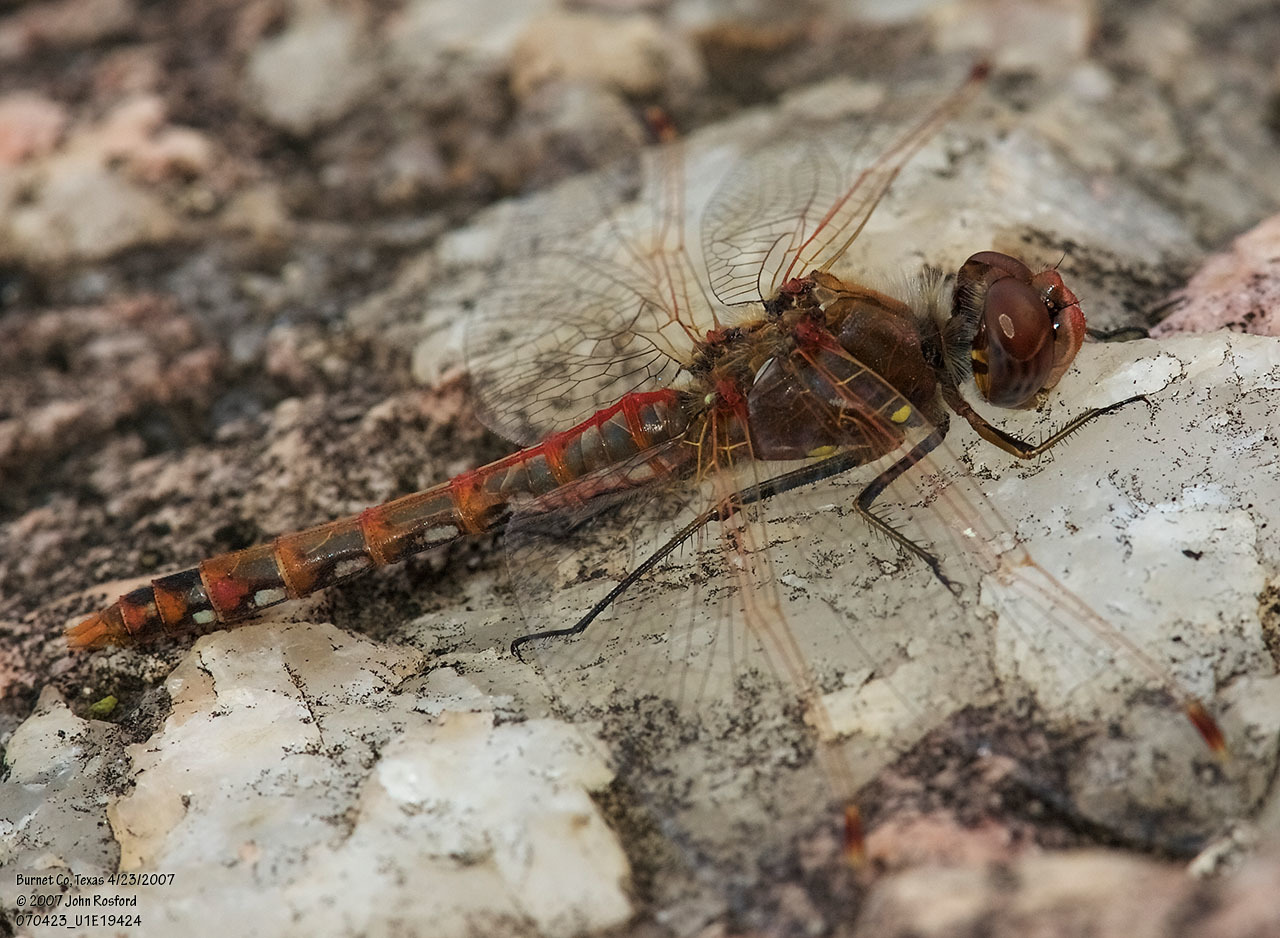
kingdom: Animalia
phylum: Arthropoda
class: Insecta
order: Odonata
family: Libellulidae
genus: Sympetrum
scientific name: Sympetrum corruptum
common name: Variegated meadowhawk
